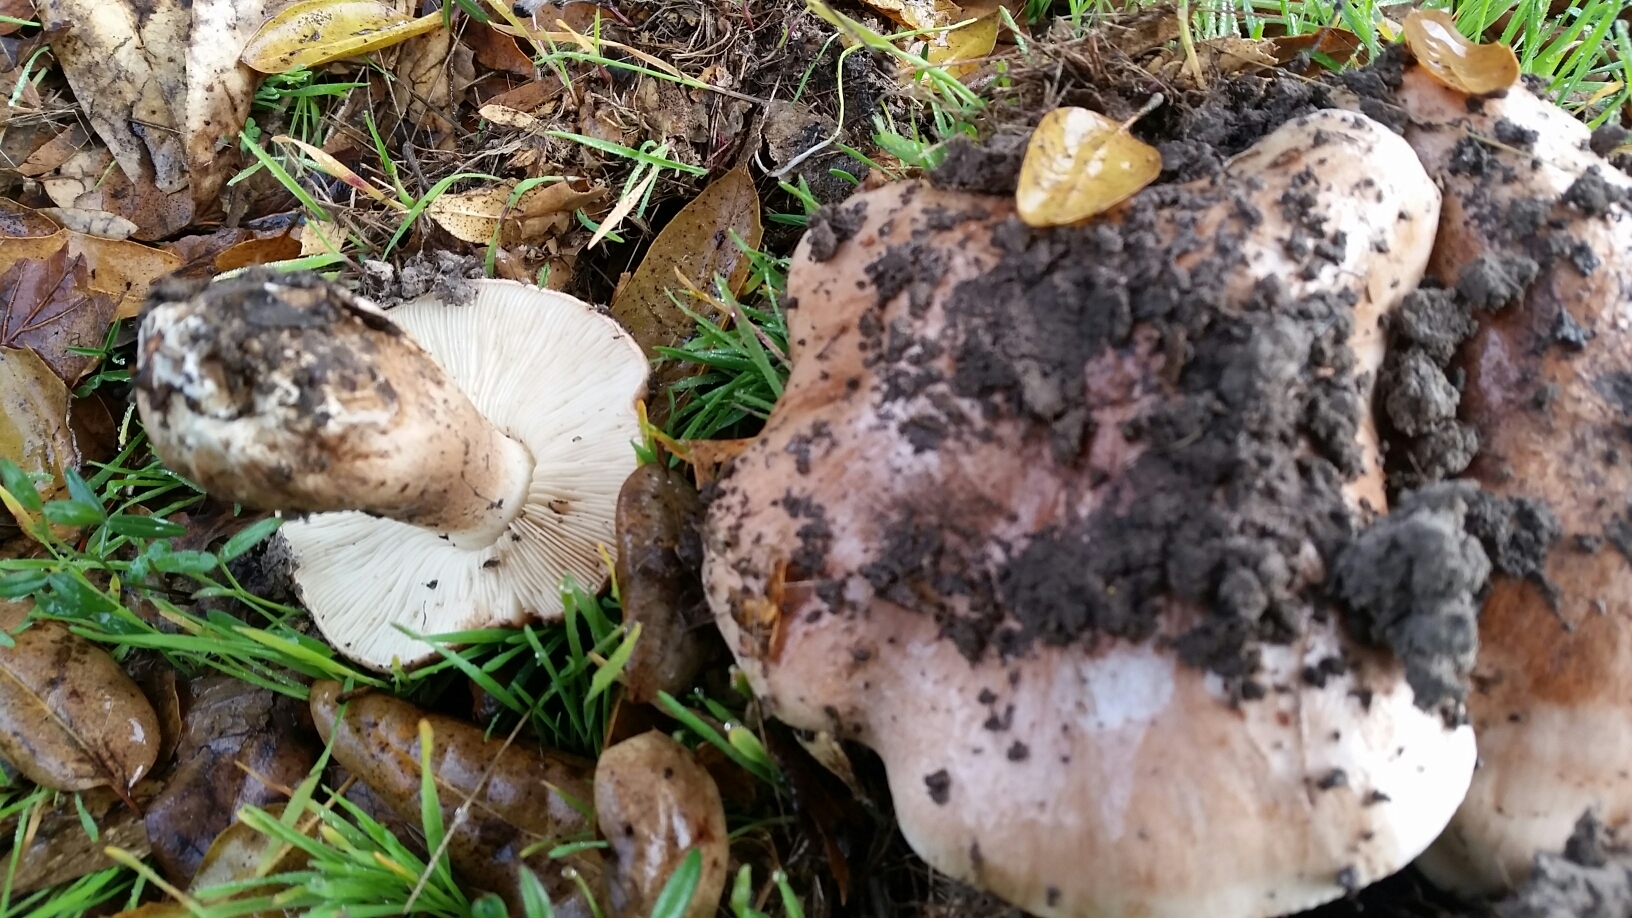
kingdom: Fungi
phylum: Basidiomycota
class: Agaricomycetes
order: Agaricales
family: Tricholomataceae
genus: Melanoleuca
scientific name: Melanoleuca dryophila
